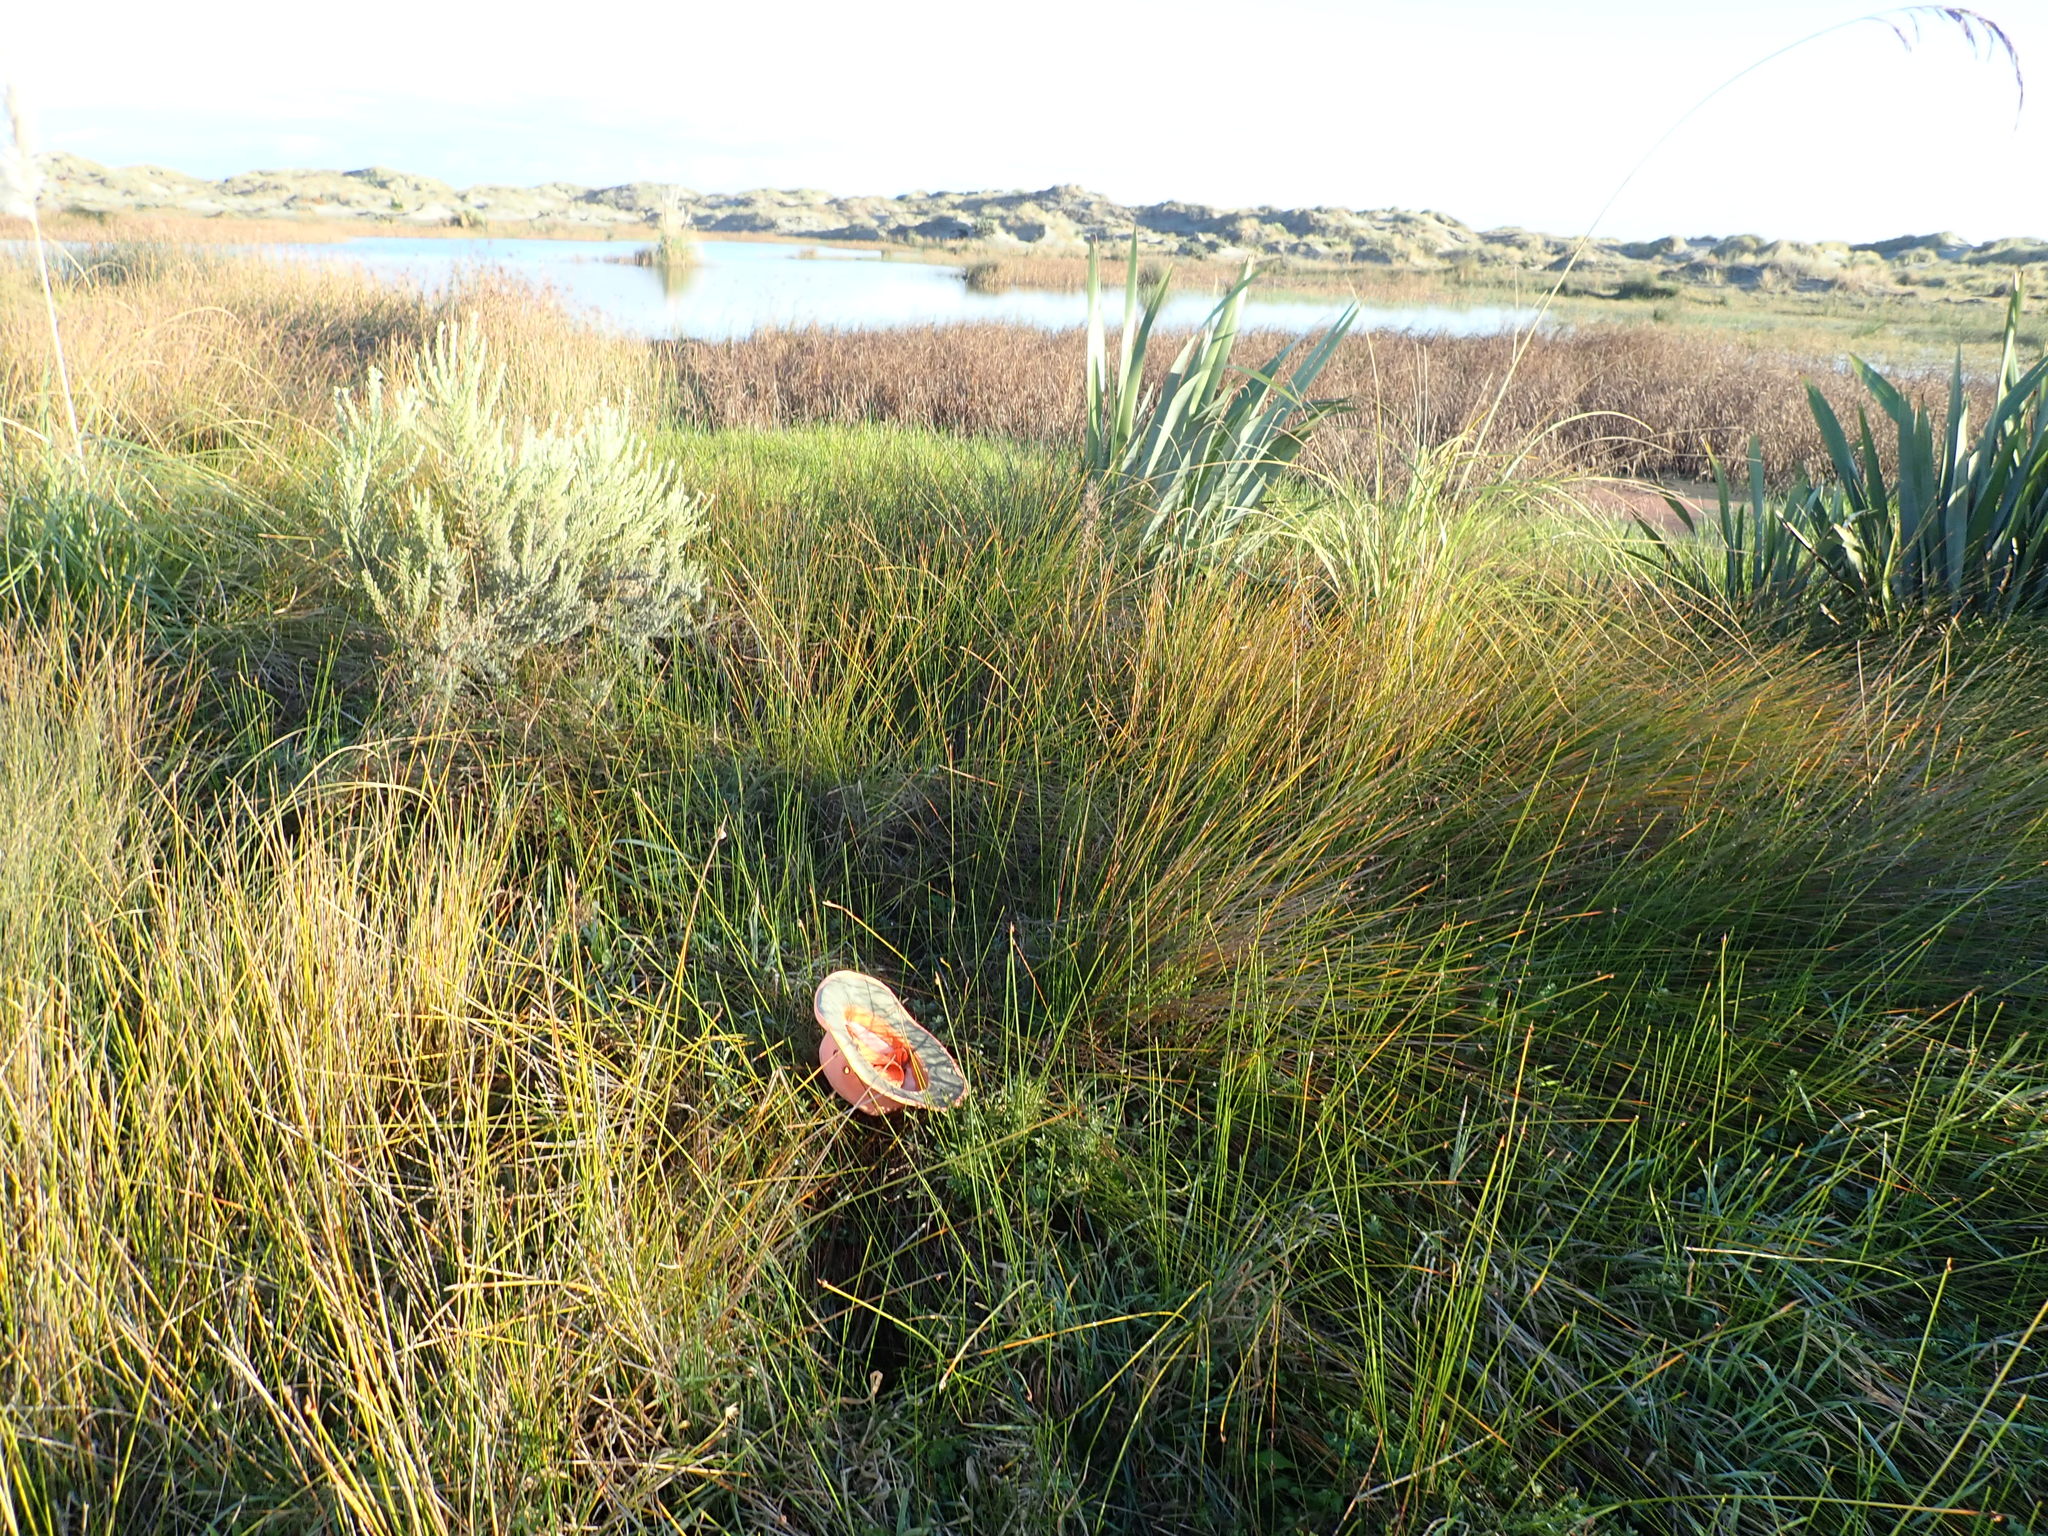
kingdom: Plantae
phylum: Tracheophyta
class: Magnoliopsida
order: Asterales
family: Campanulaceae
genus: Lobelia
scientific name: Lobelia anceps
